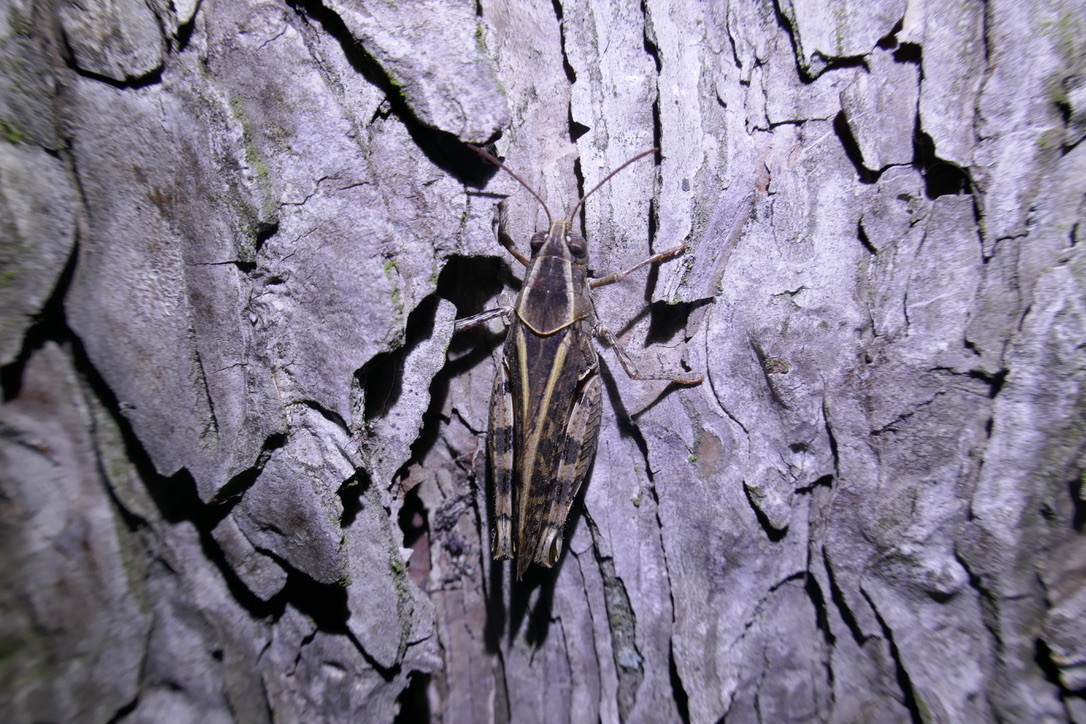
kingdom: Animalia
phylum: Arthropoda
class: Insecta
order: Orthoptera
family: Acrididae
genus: Calliptamus
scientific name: Calliptamus italicus
